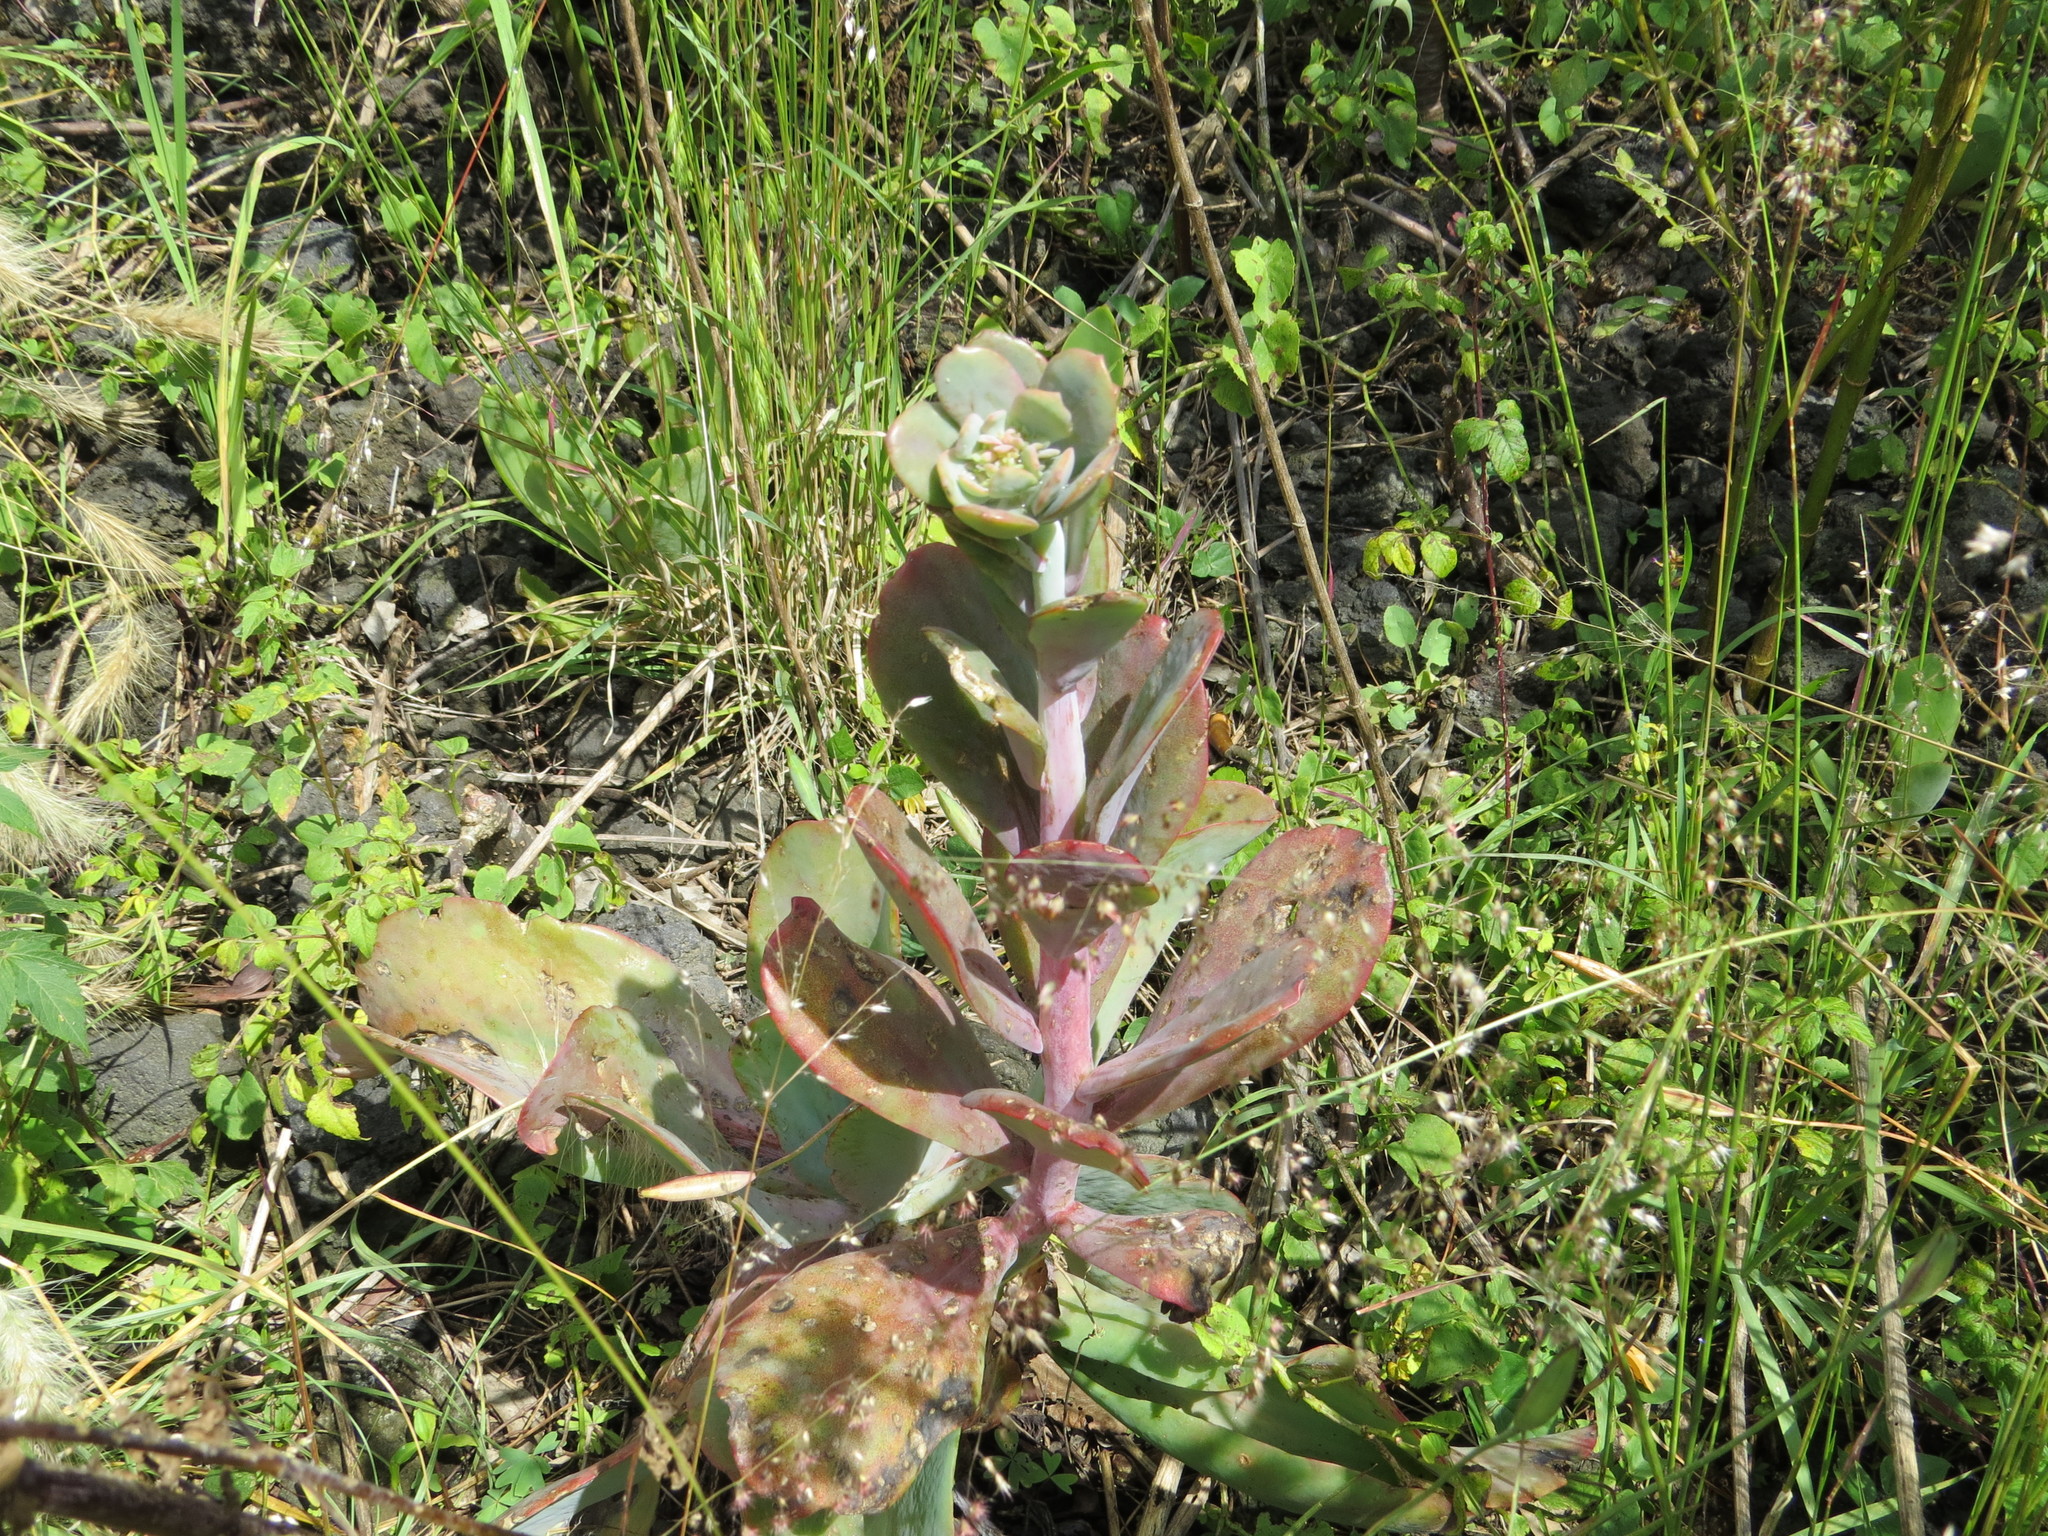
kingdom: Plantae
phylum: Tracheophyta
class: Magnoliopsida
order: Saxifragales
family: Crassulaceae
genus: Echeveria
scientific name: Echeveria gibbiflora
